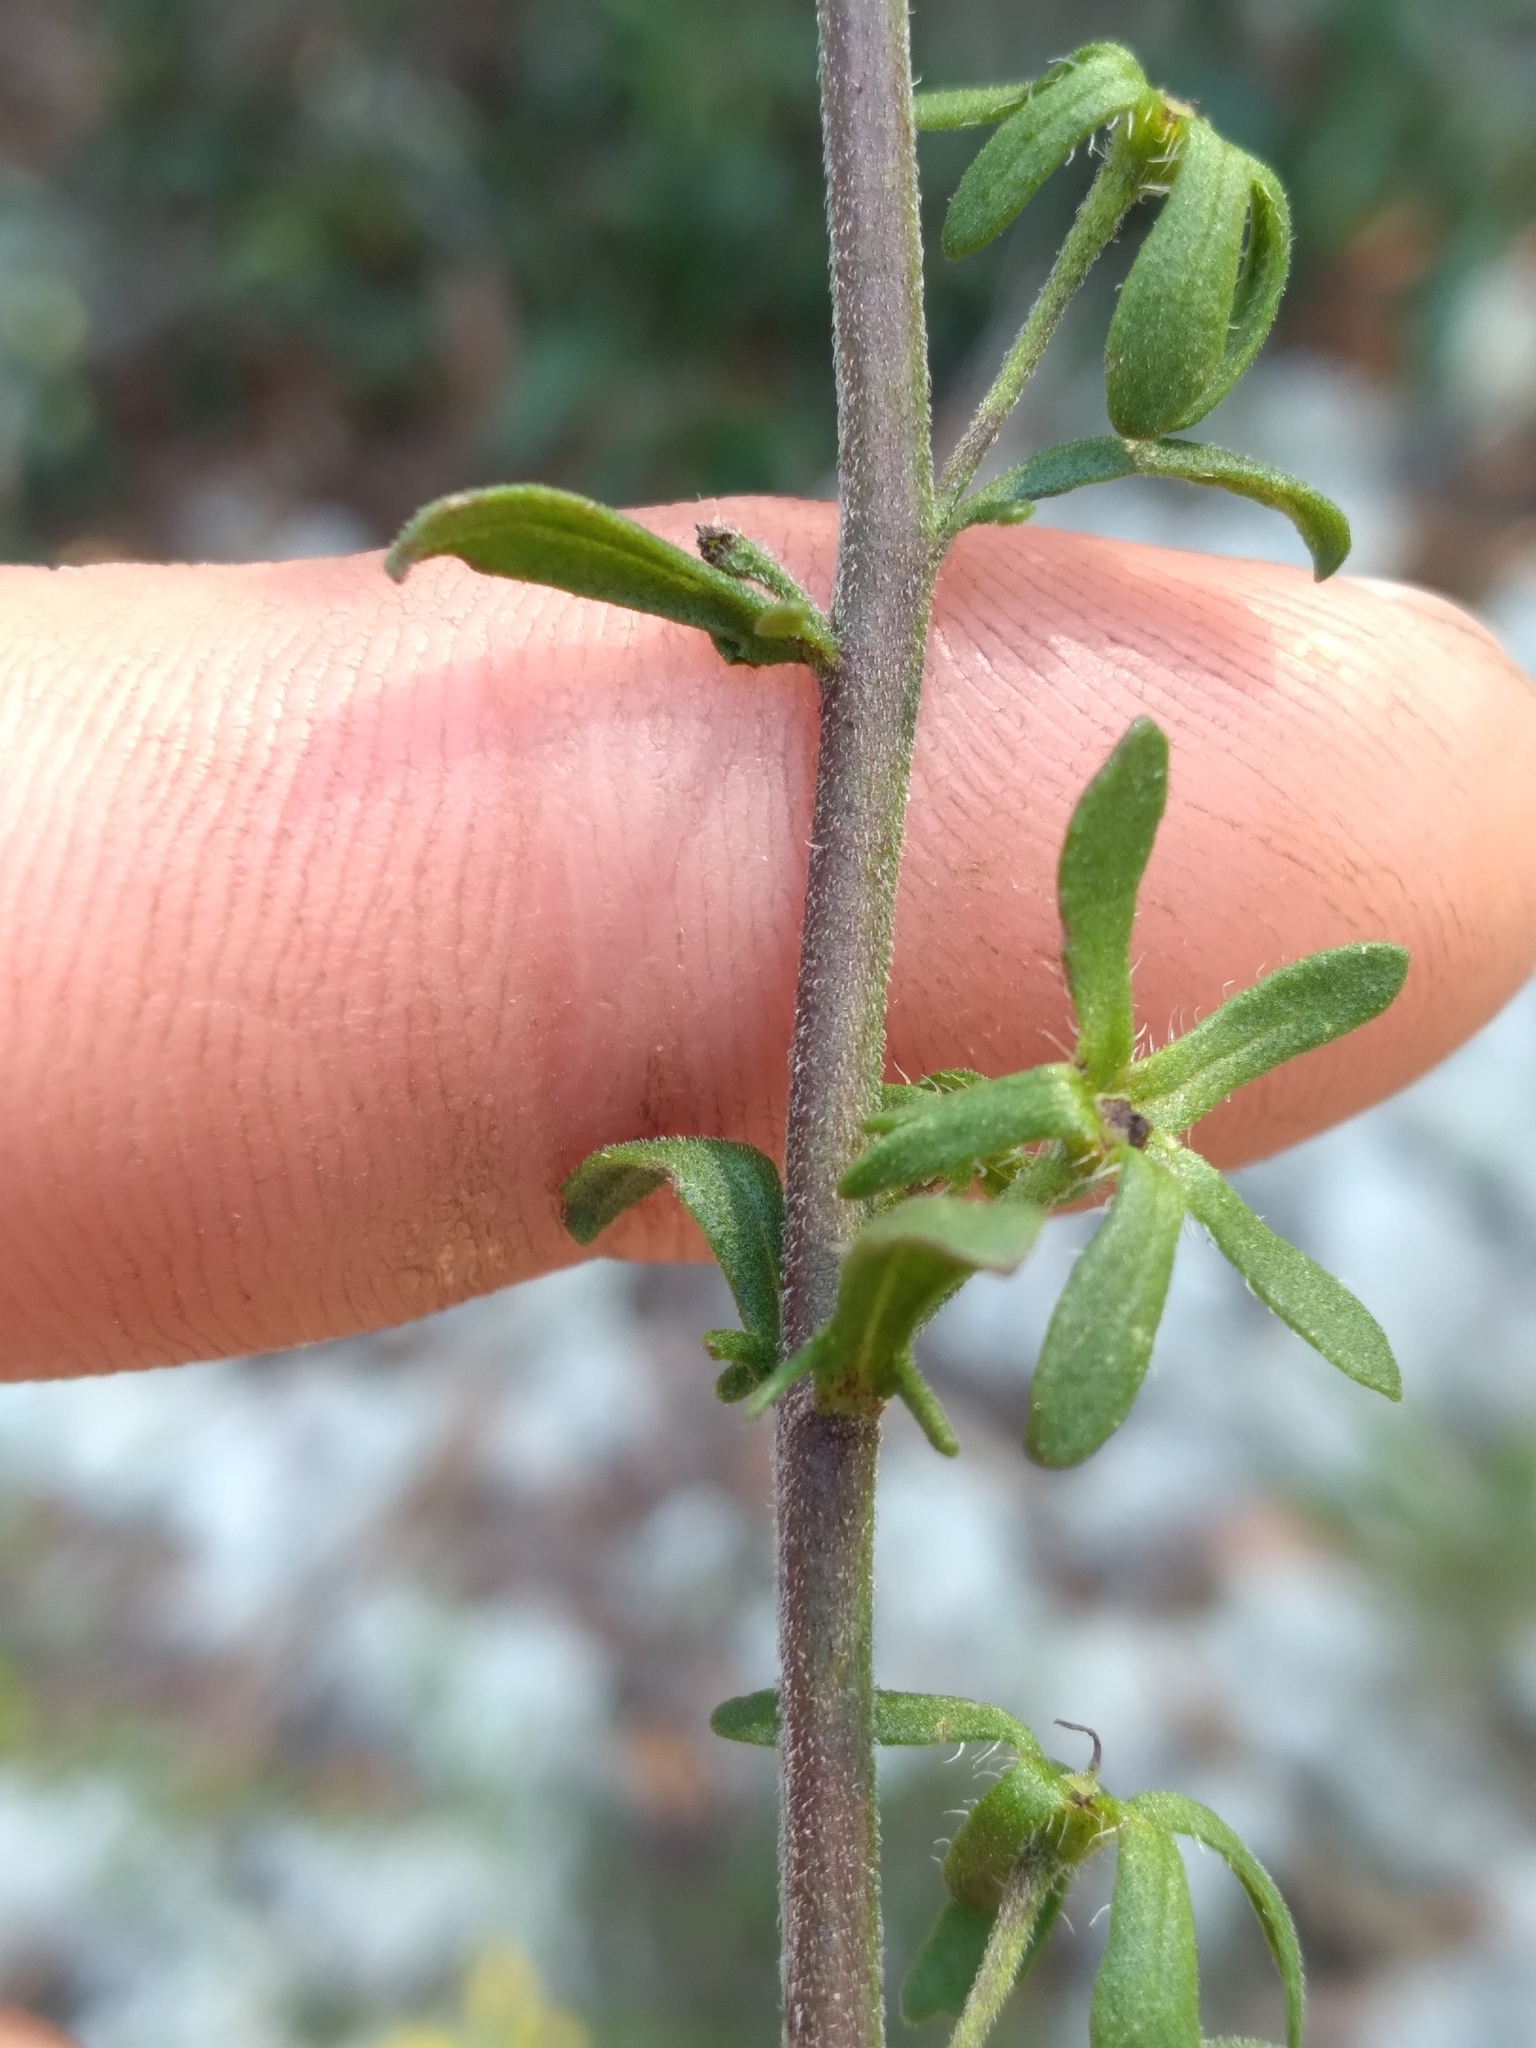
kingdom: Plantae
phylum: Tracheophyta
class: Magnoliopsida
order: Lamiales
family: Orobanchaceae
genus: Seymeria
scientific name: Seymeria pectinata
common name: Piedmont black-senna
